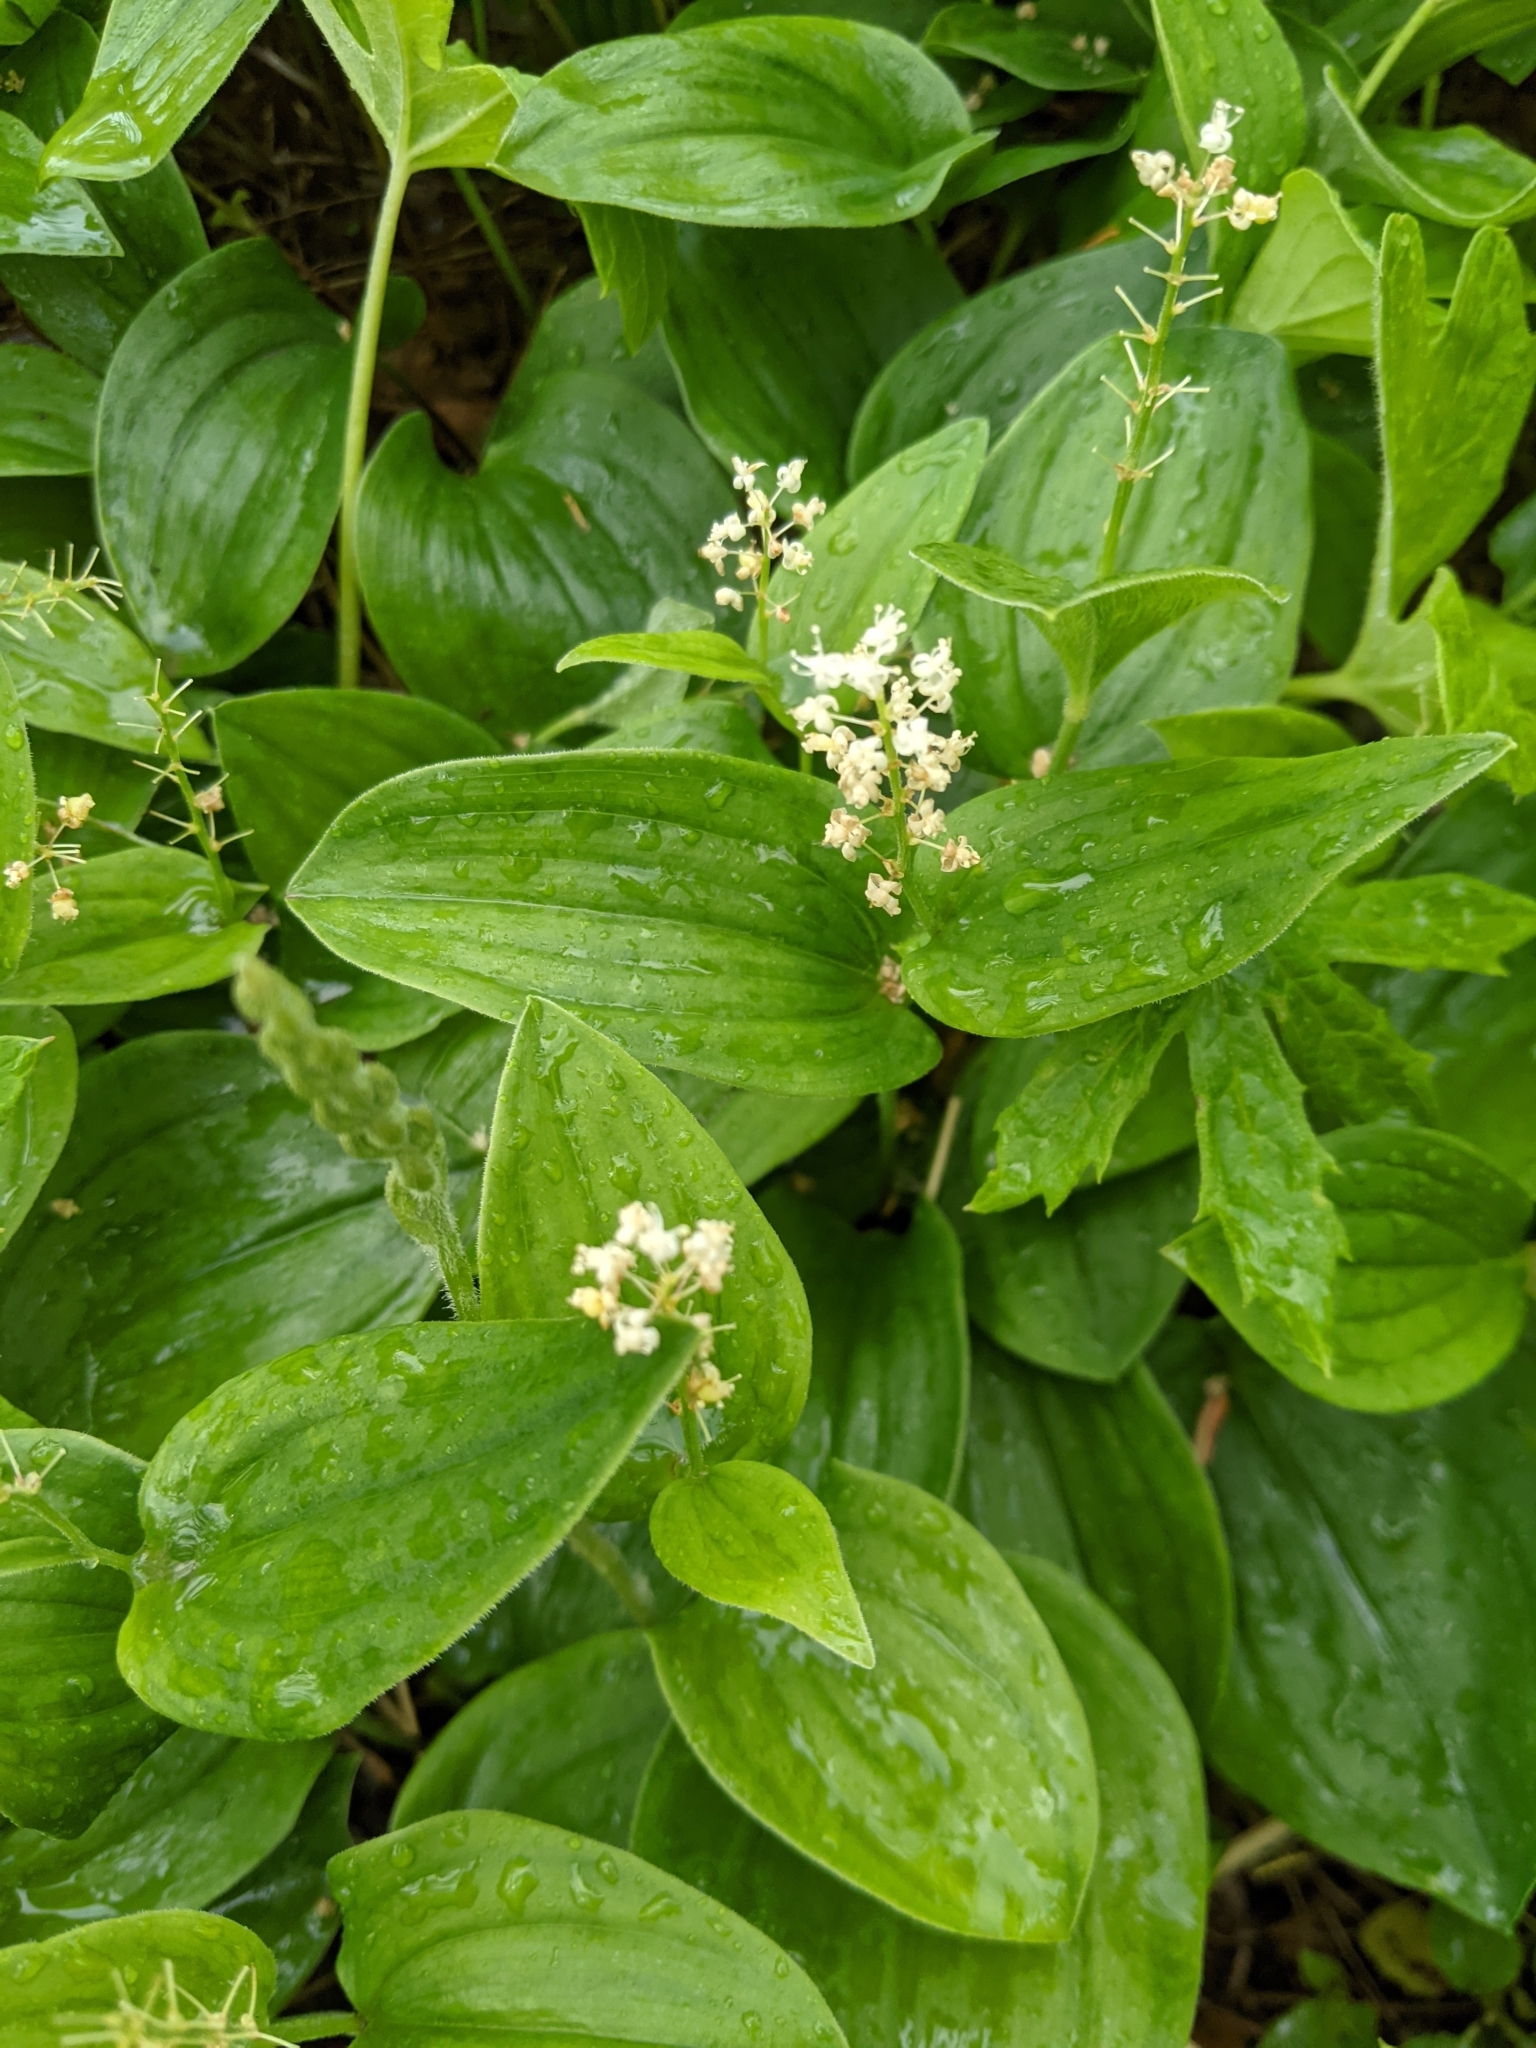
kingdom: Plantae
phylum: Tracheophyta
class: Liliopsida
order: Asparagales
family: Asparagaceae
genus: Maianthemum
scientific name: Maianthemum canadense
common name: False lily-of-the-valley
